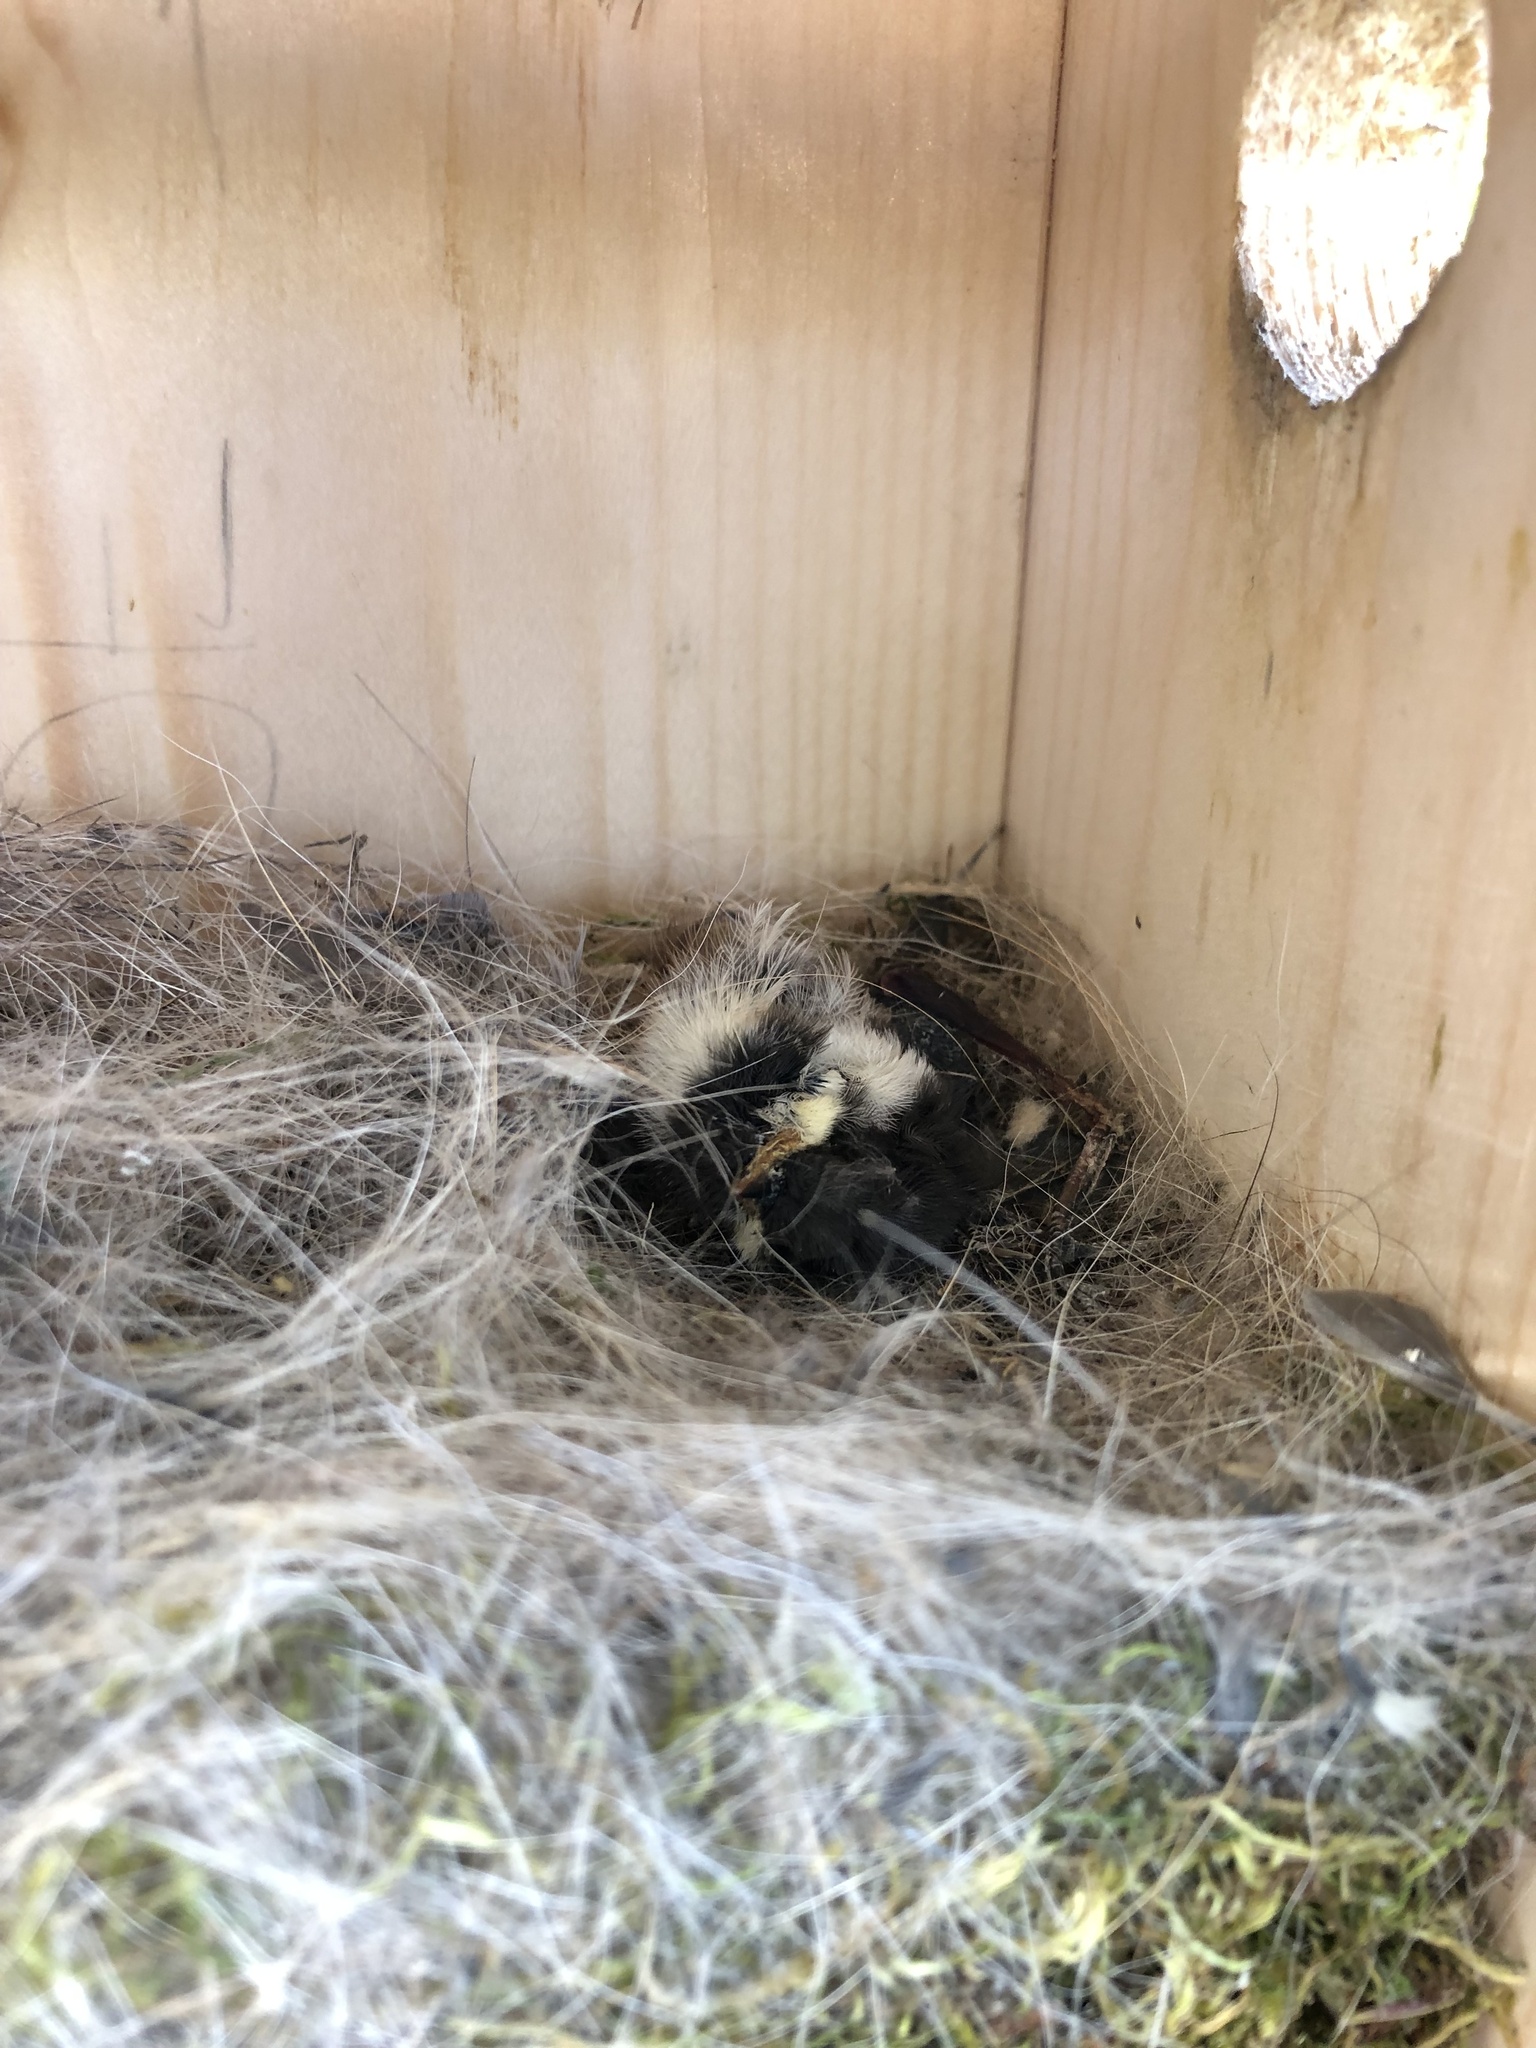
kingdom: Animalia
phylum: Chordata
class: Aves
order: Passeriformes
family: Paridae
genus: Poecile
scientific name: Poecile rufescens
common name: Chestnut-backed chickadee
